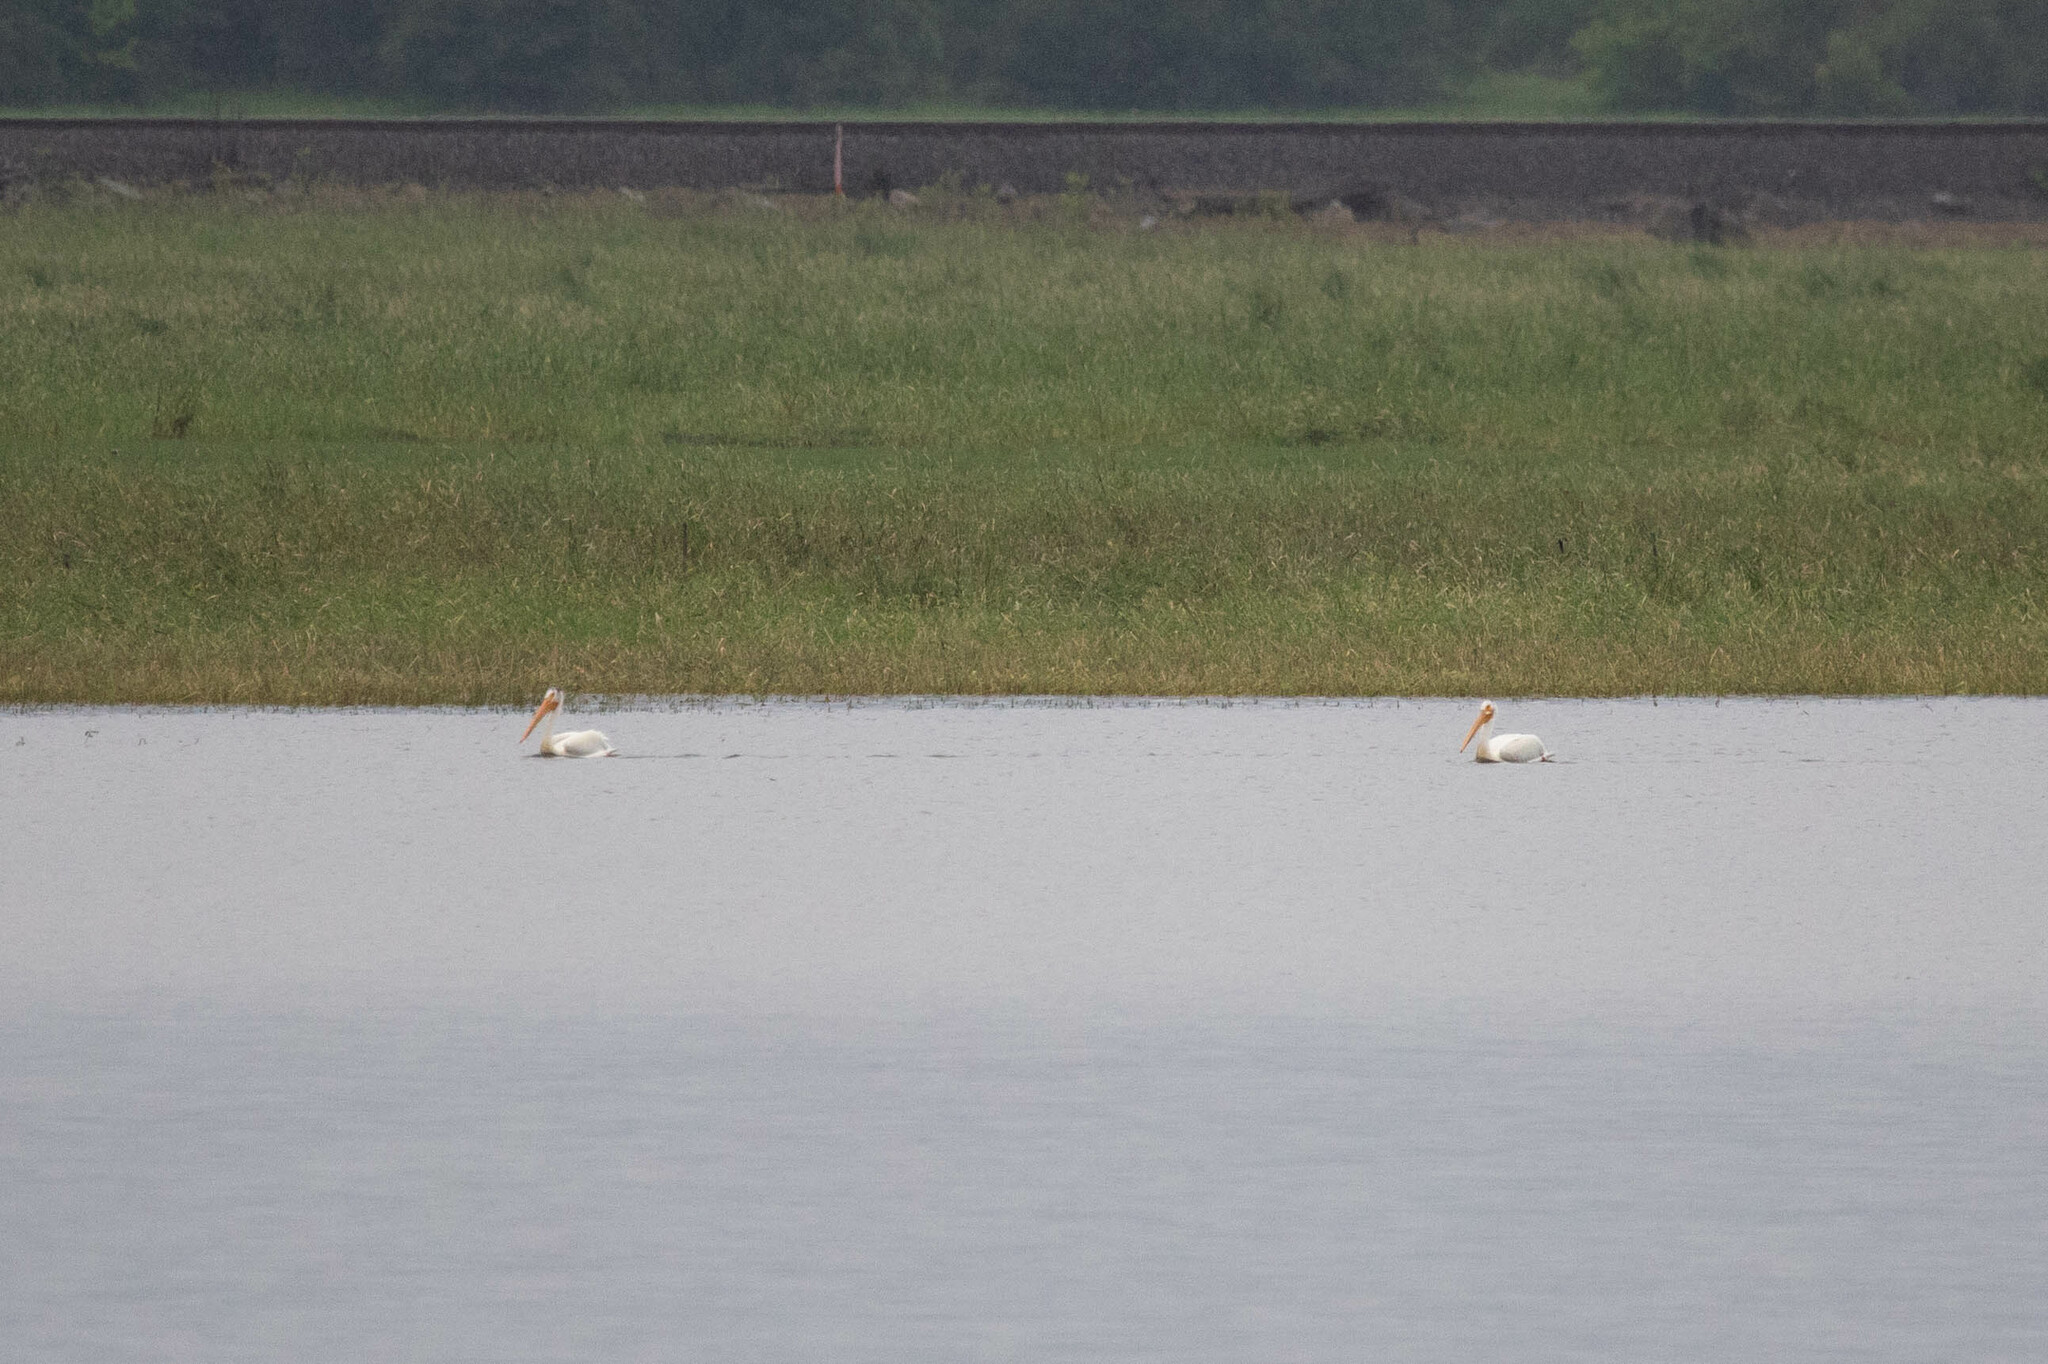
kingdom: Animalia
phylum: Chordata
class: Aves
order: Pelecaniformes
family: Pelecanidae
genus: Pelecanus
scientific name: Pelecanus erythrorhynchos
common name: American white pelican
